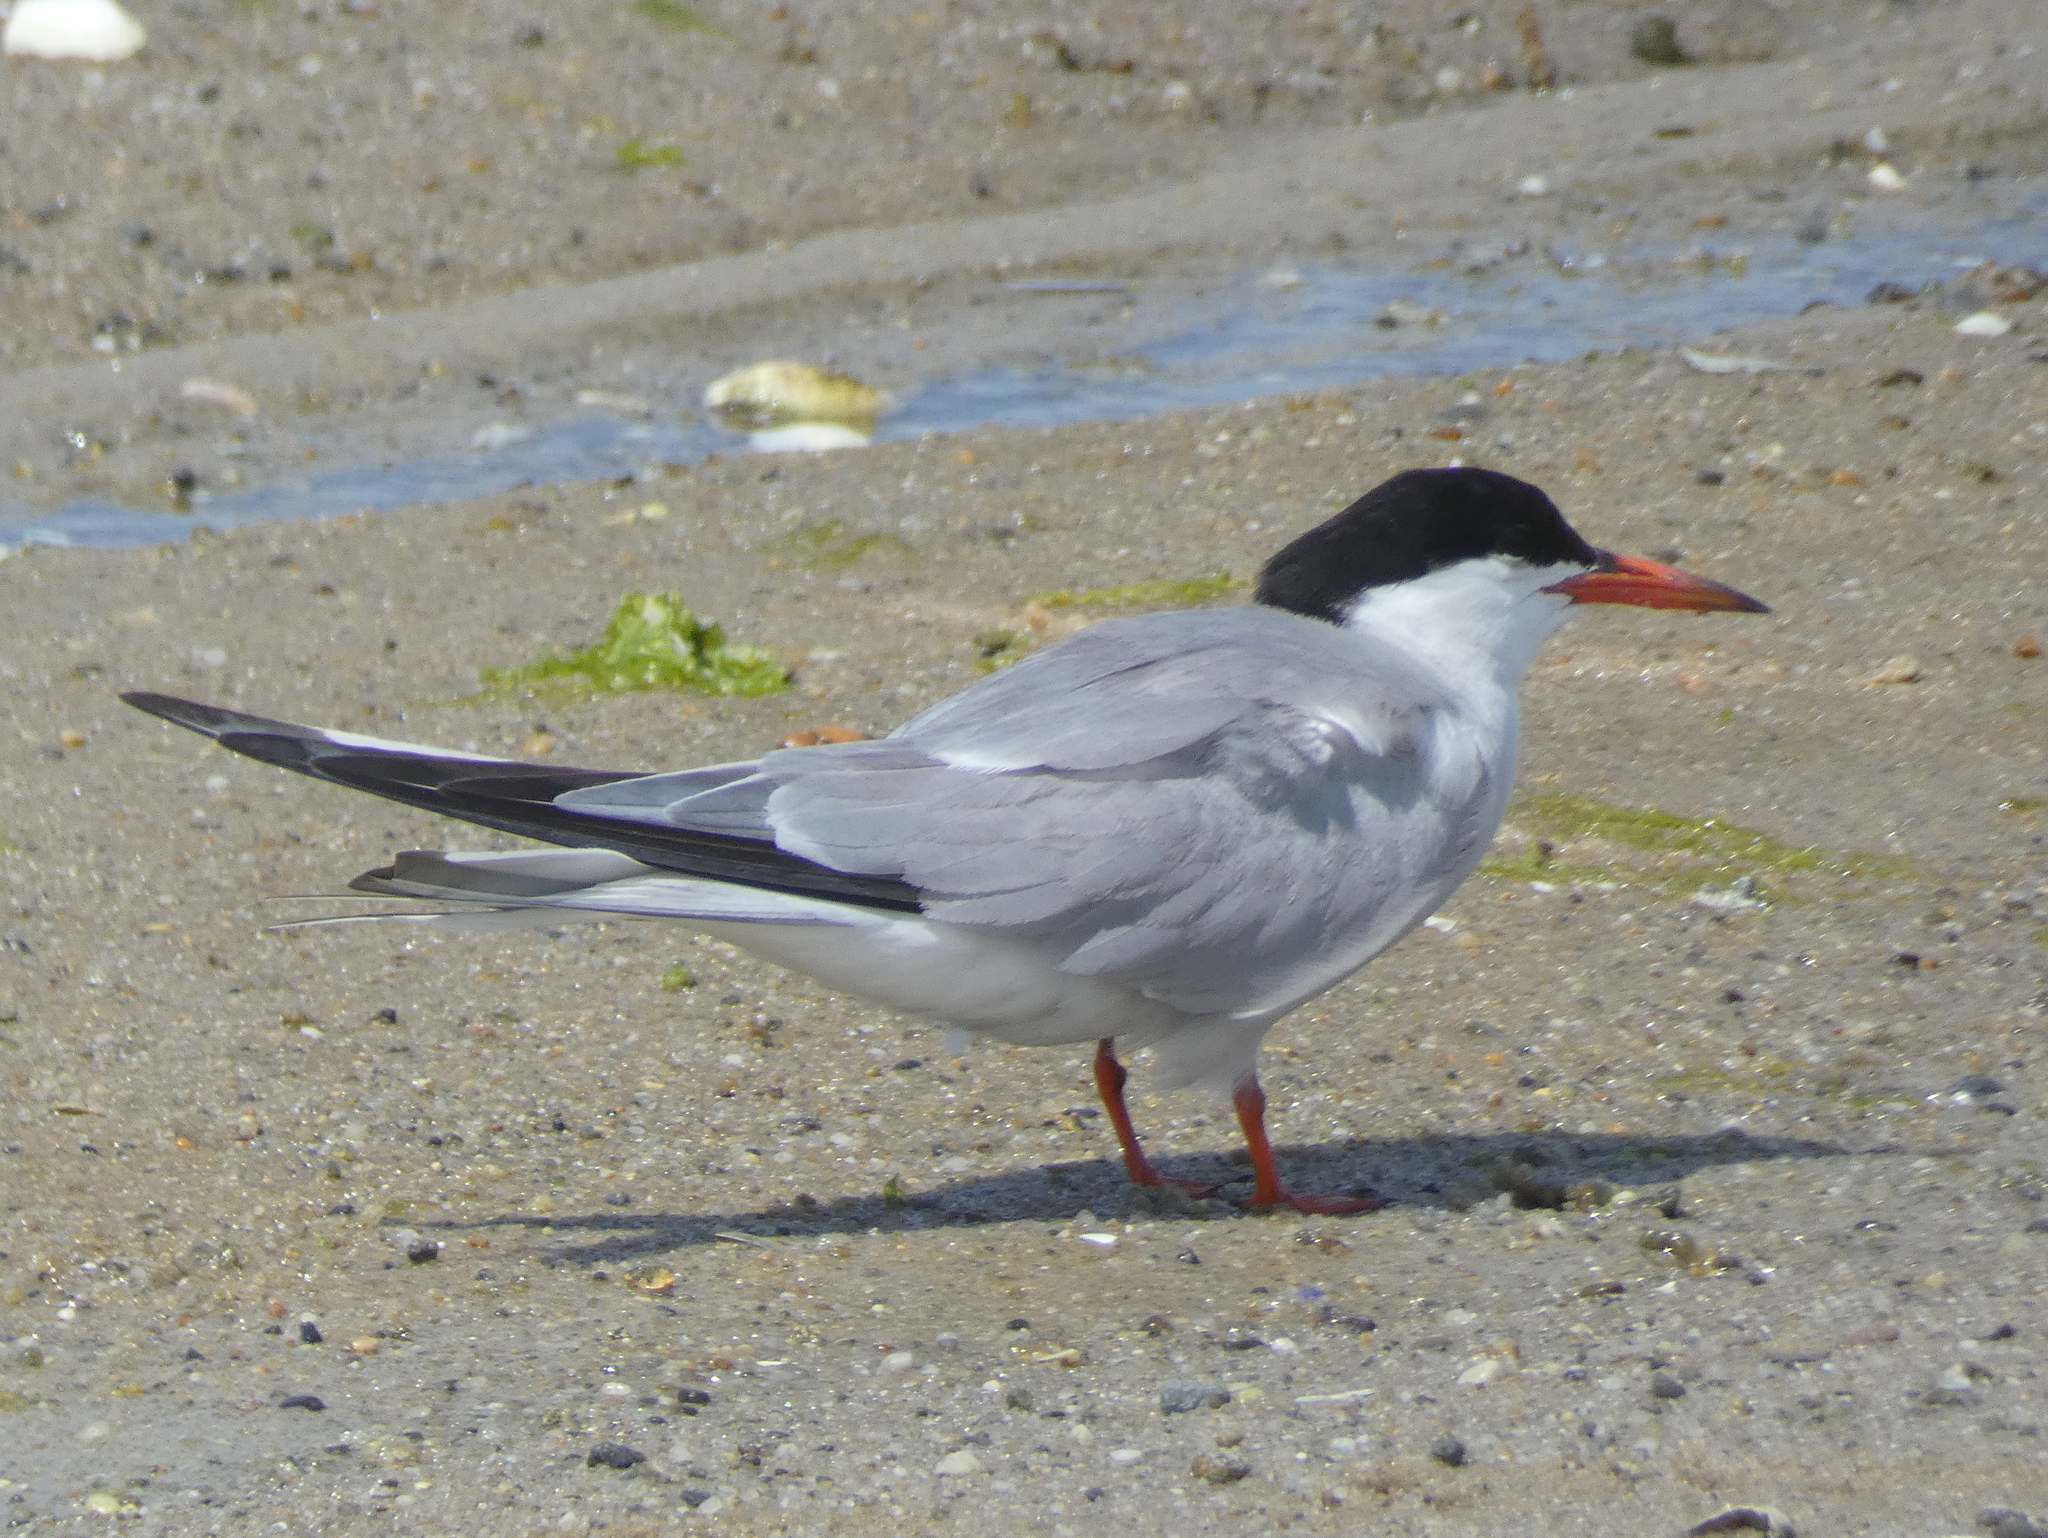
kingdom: Animalia
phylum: Chordata
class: Aves
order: Charadriiformes
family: Laridae
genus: Sterna
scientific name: Sterna hirundo
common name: Common tern
